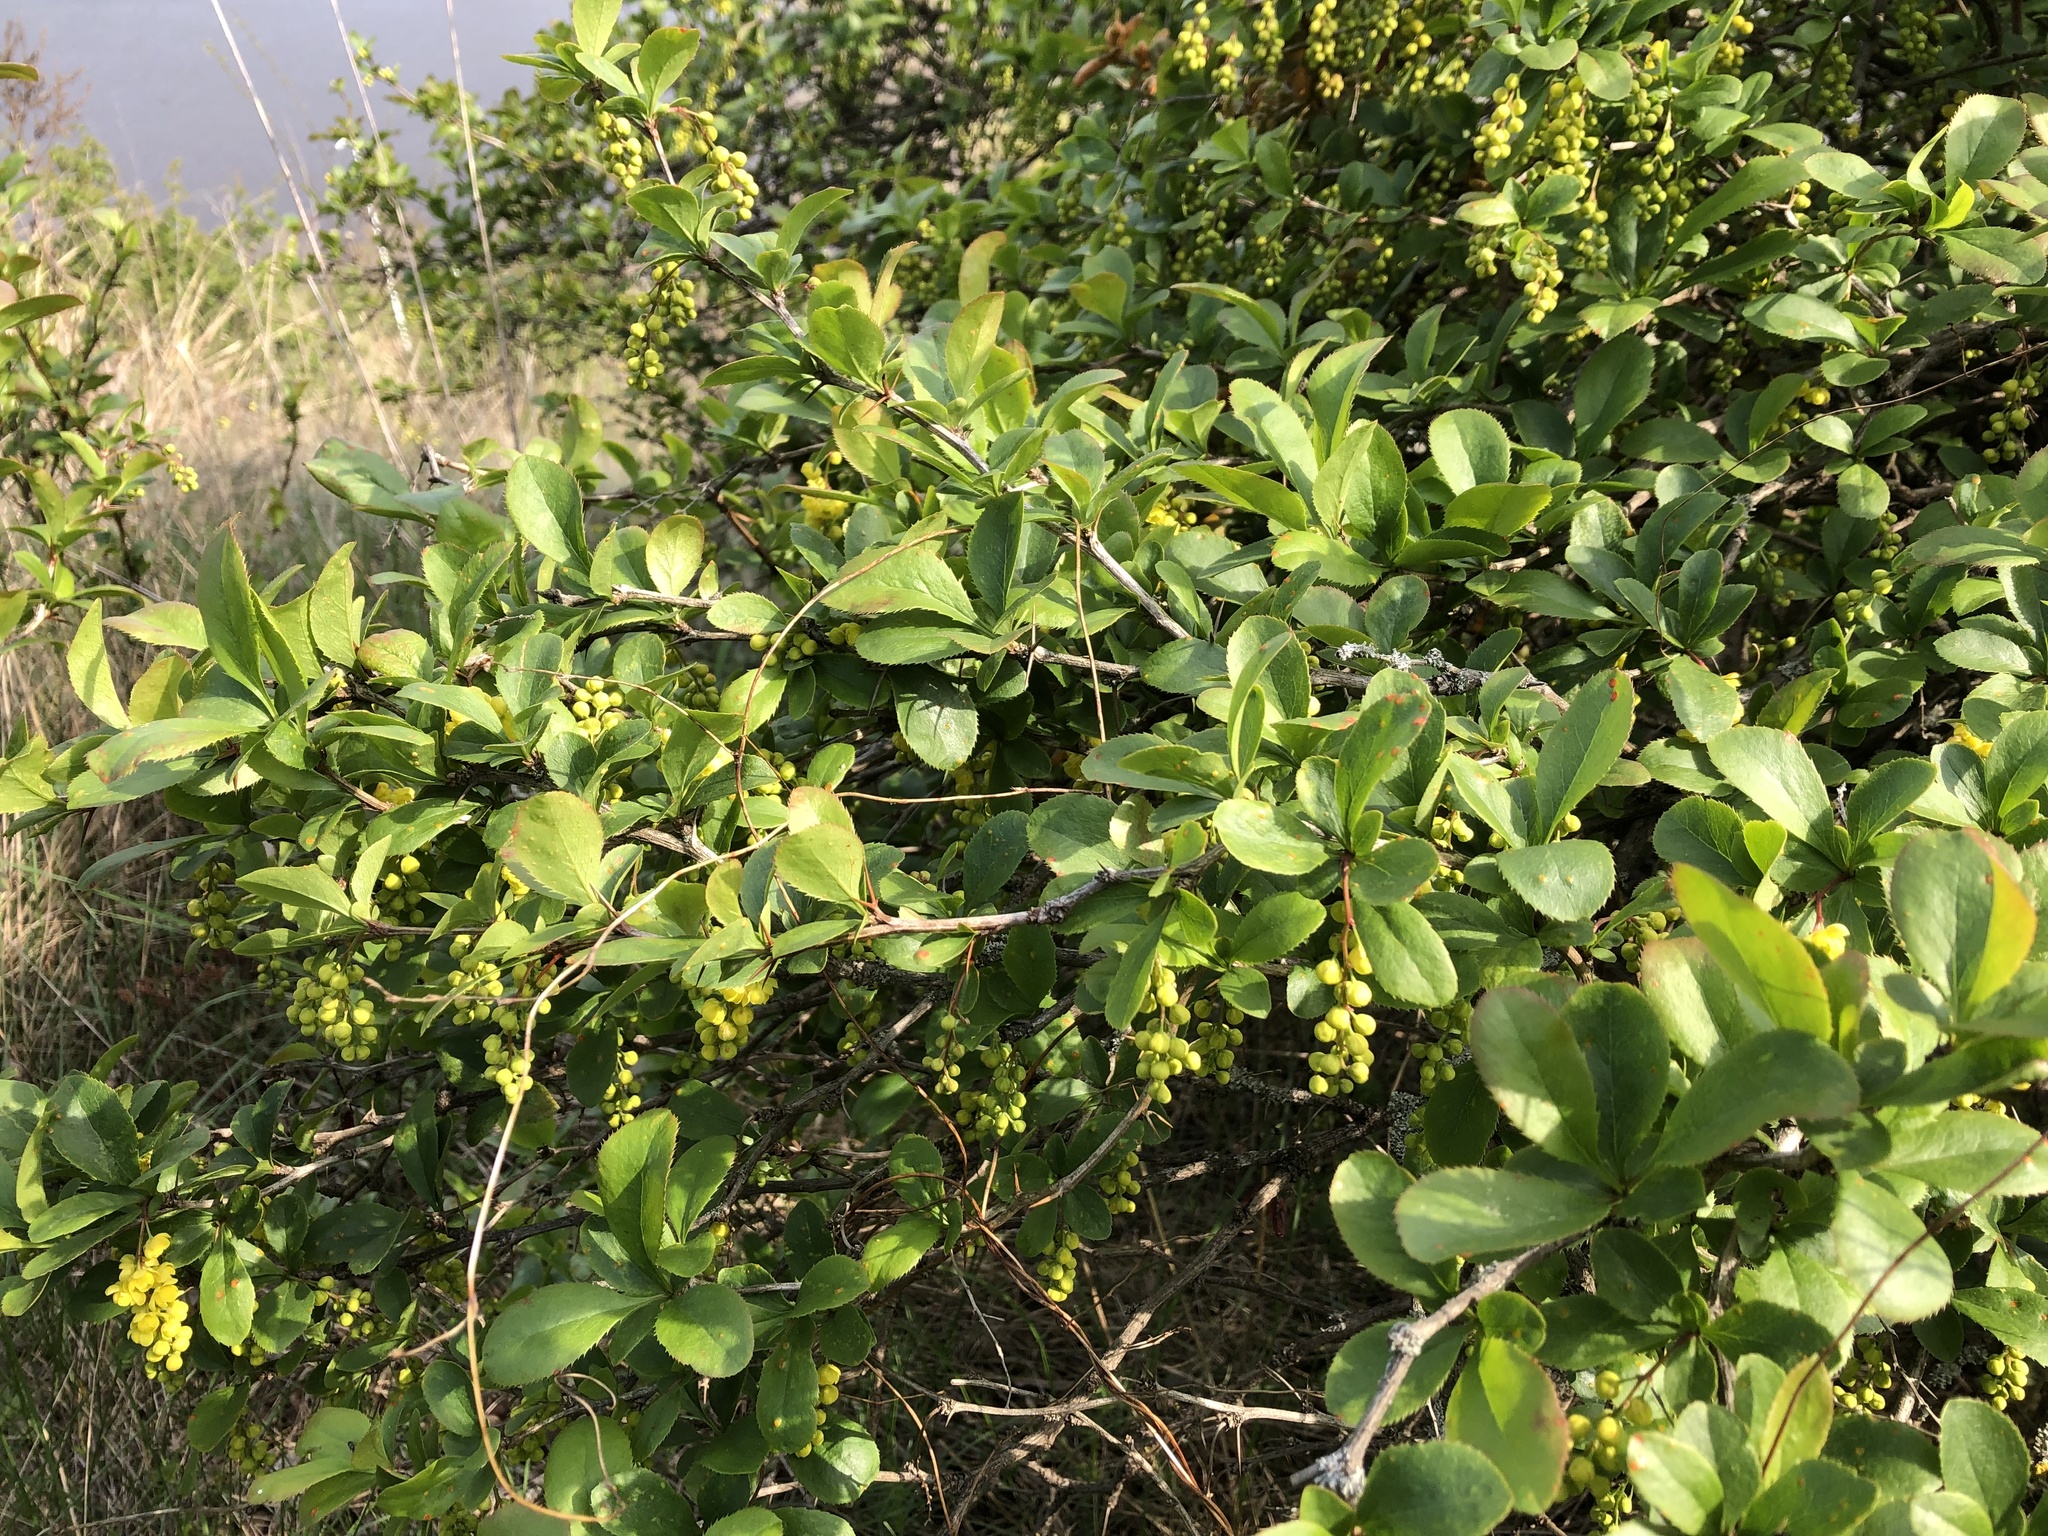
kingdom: Plantae
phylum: Tracheophyta
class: Magnoliopsida
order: Ranunculales
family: Berberidaceae
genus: Berberis
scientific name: Berberis vulgaris
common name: Barberry
